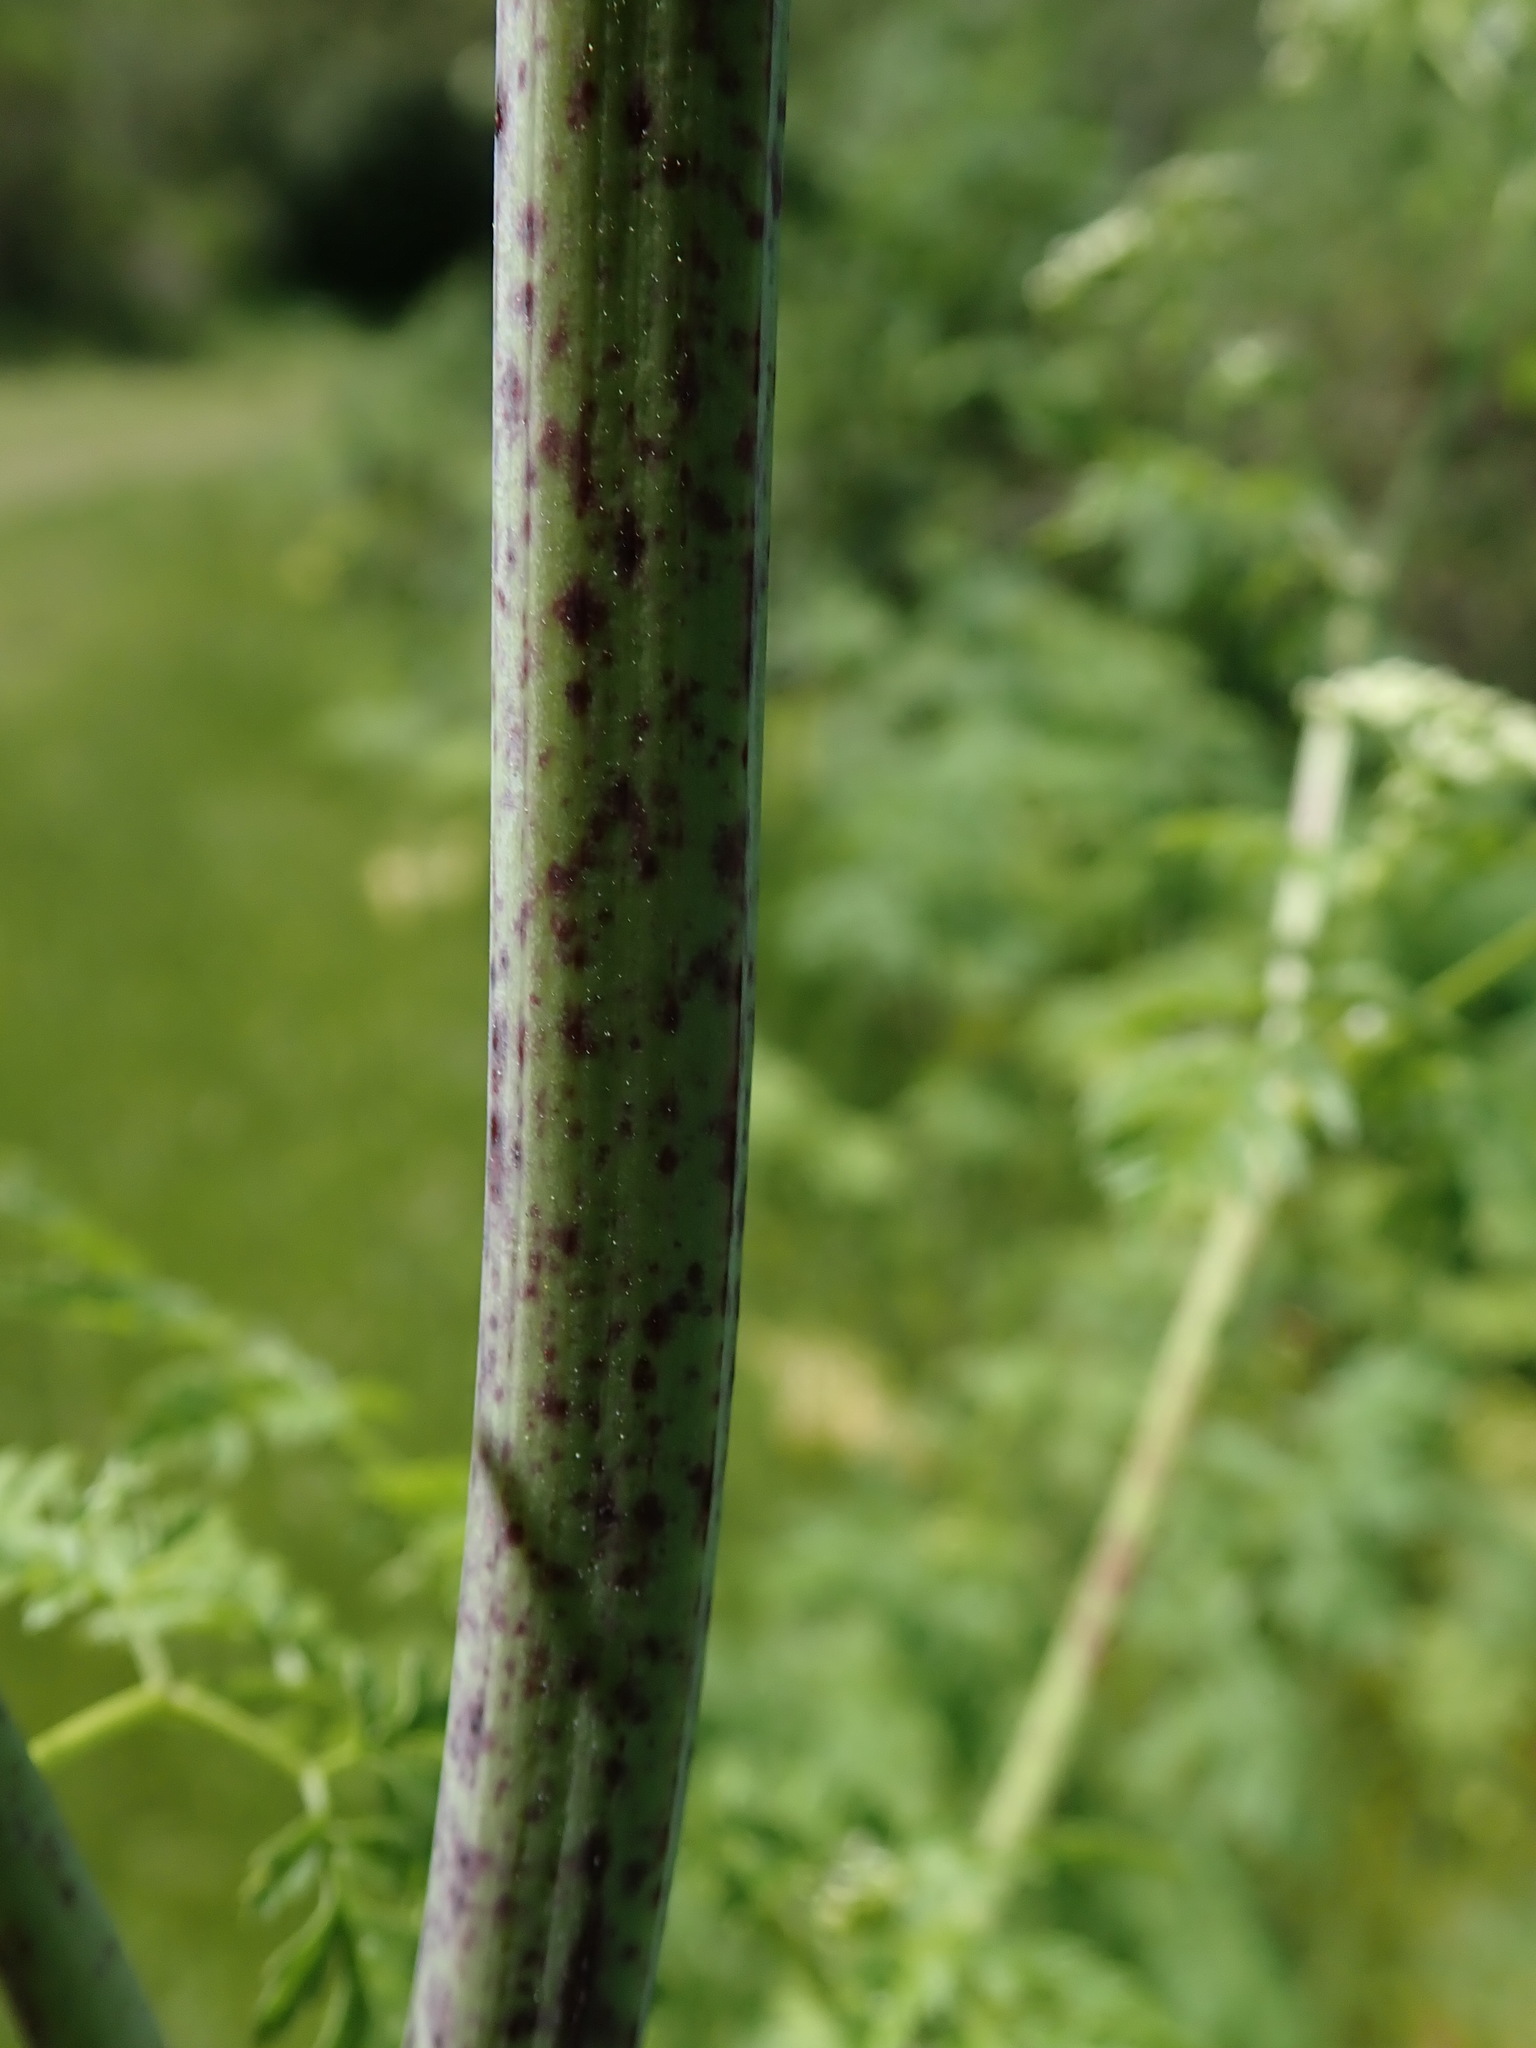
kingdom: Plantae
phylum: Tracheophyta
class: Magnoliopsida
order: Apiales
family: Apiaceae
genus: Conium
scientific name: Conium maculatum
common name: Hemlock
